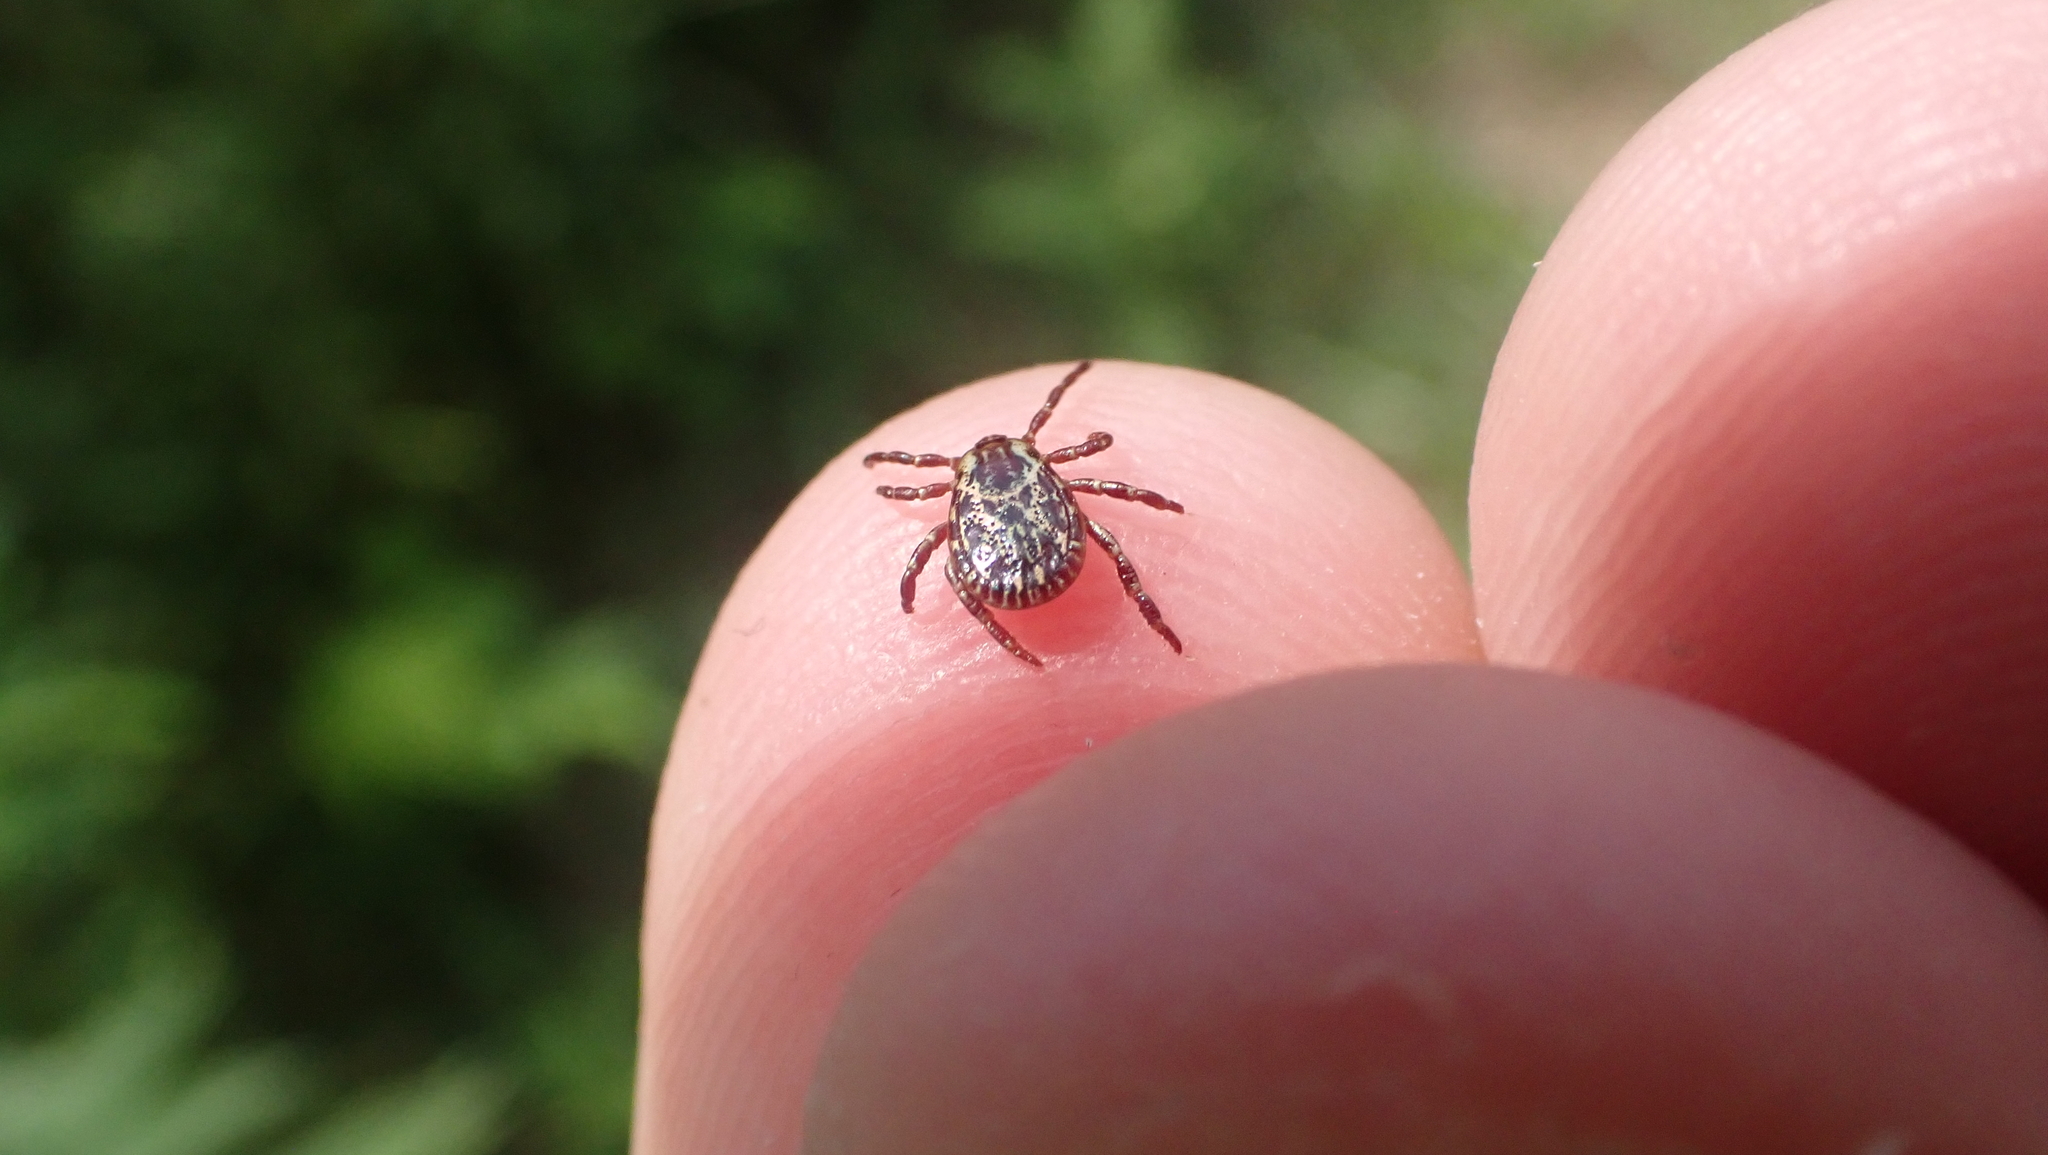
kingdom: Animalia
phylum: Arthropoda
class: Arachnida
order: Ixodida
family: Ixodidae
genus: Dermacentor
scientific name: Dermacentor variabilis
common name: American dog tick
